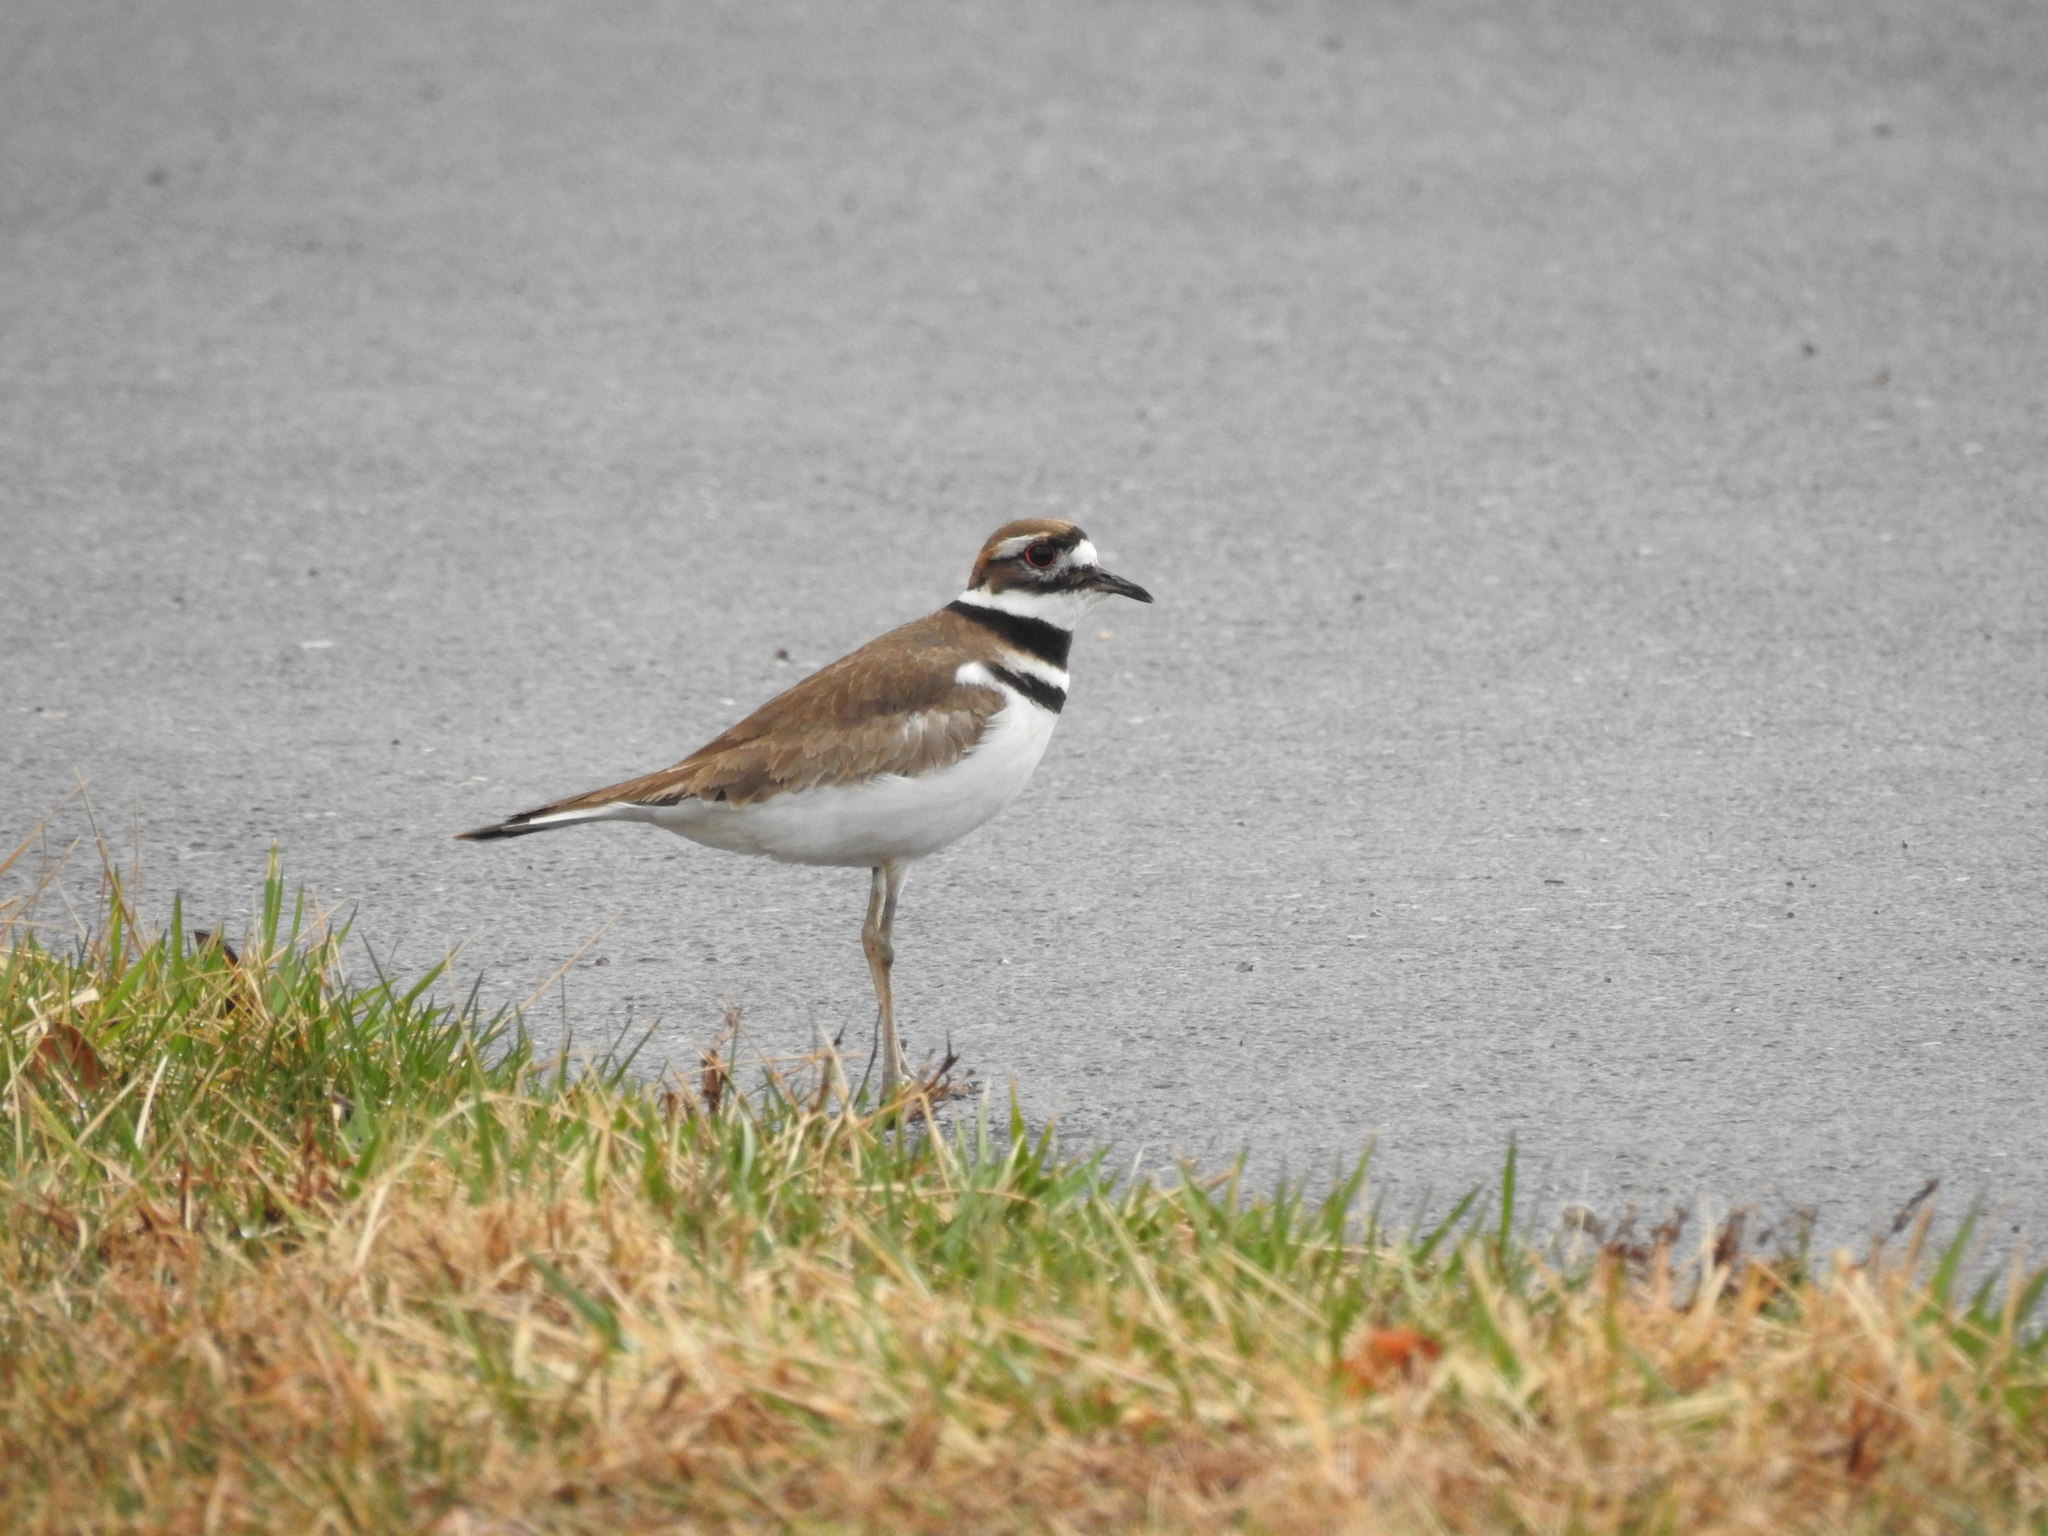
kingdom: Animalia
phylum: Chordata
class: Aves
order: Charadriiformes
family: Charadriidae
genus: Charadrius
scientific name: Charadrius vociferus
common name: Killdeer
